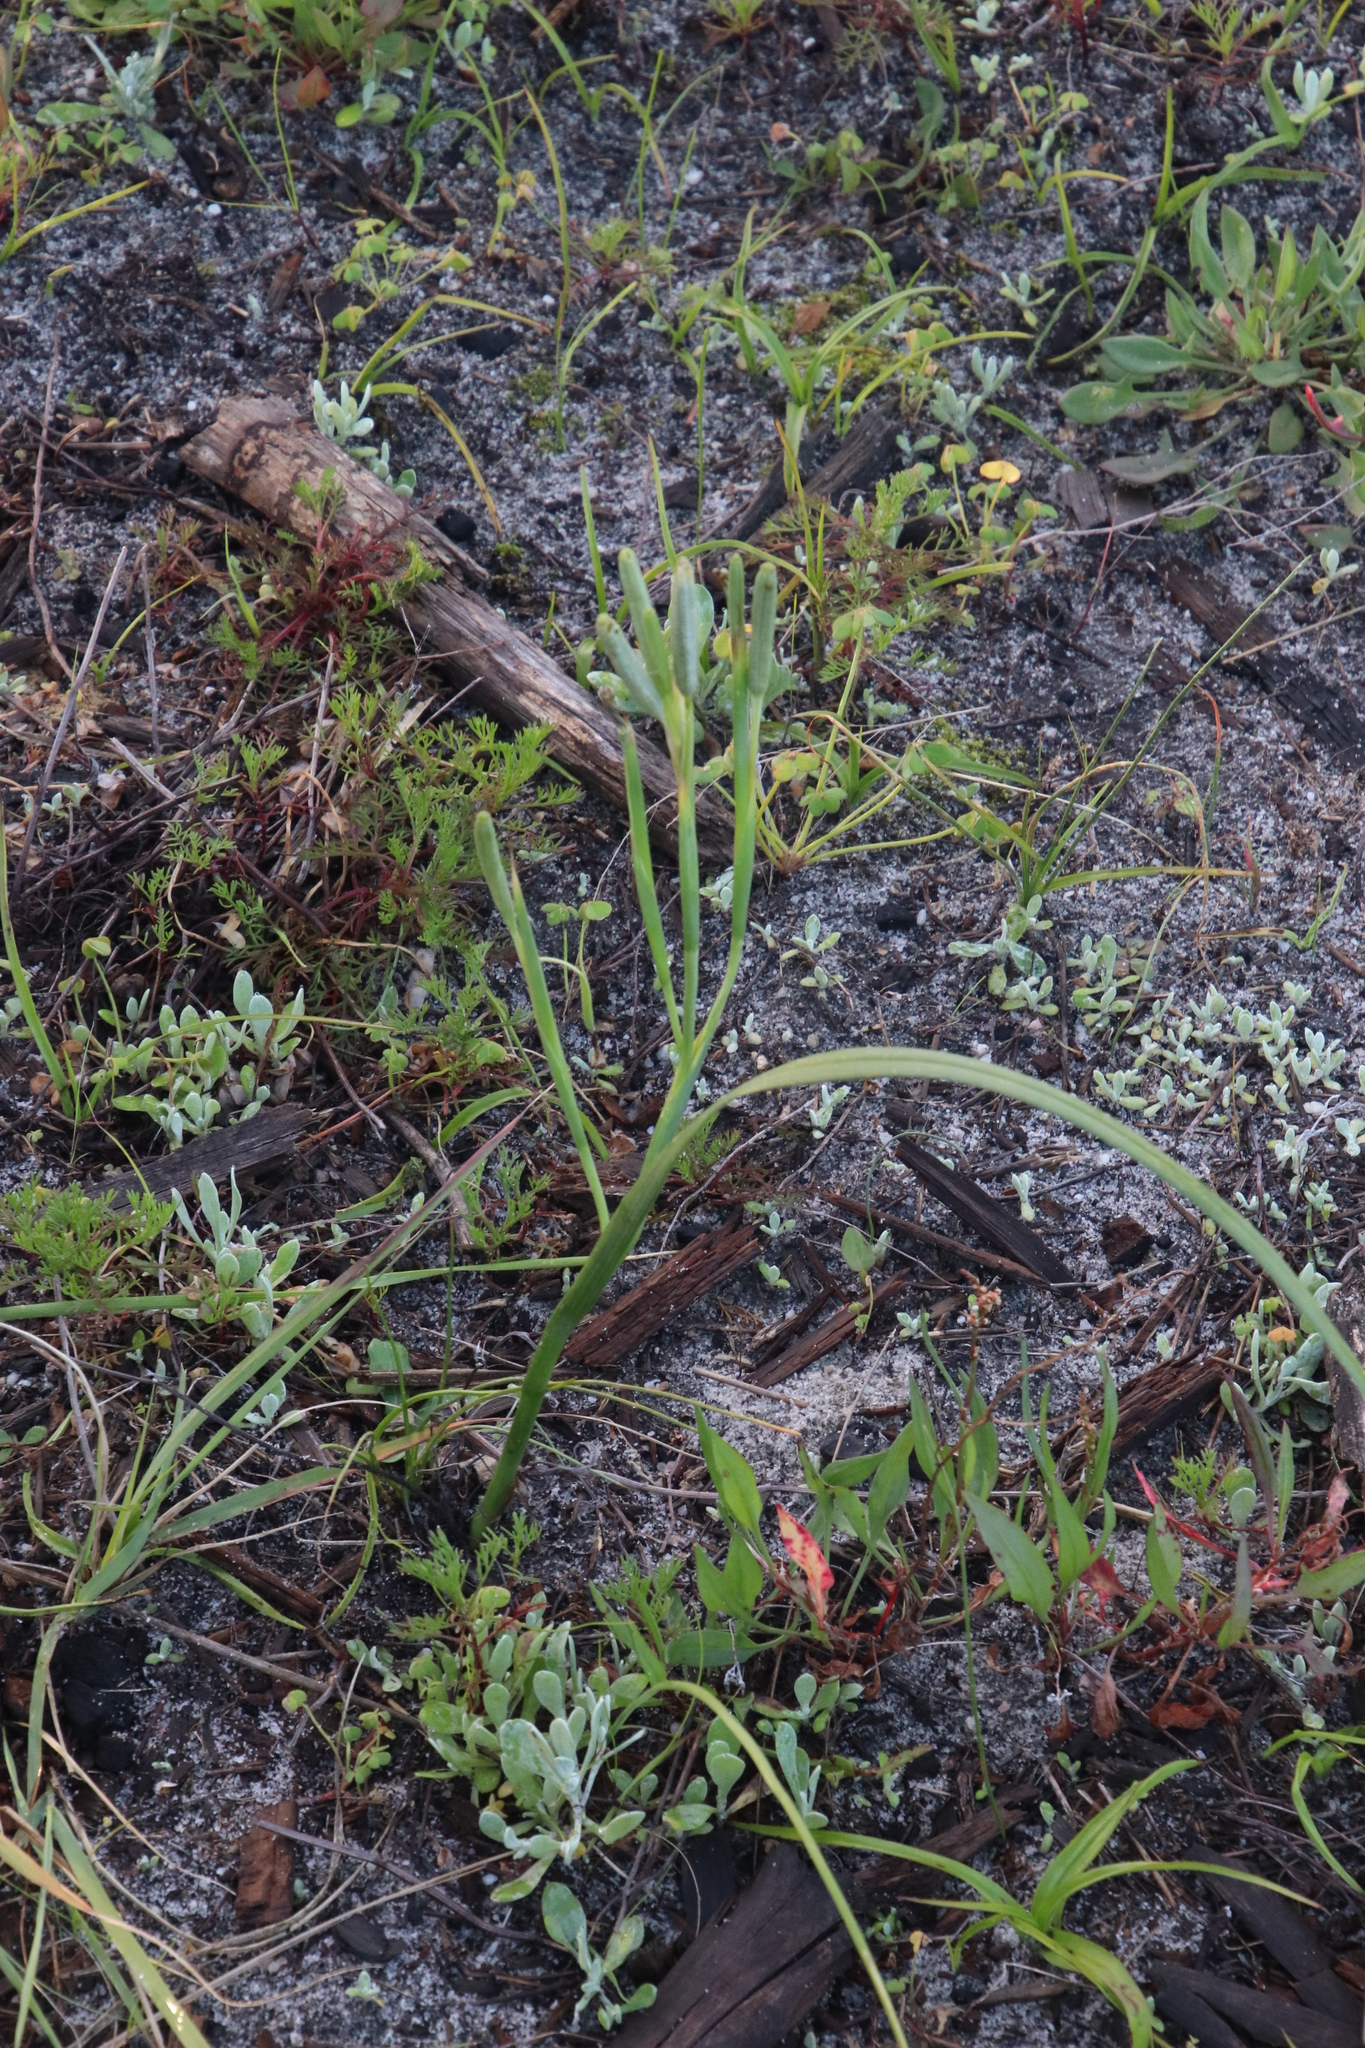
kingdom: Plantae
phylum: Tracheophyta
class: Liliopsida
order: Asparagales
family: Iridaceae
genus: Moraea
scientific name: Moraea collina
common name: Cape-tulip
